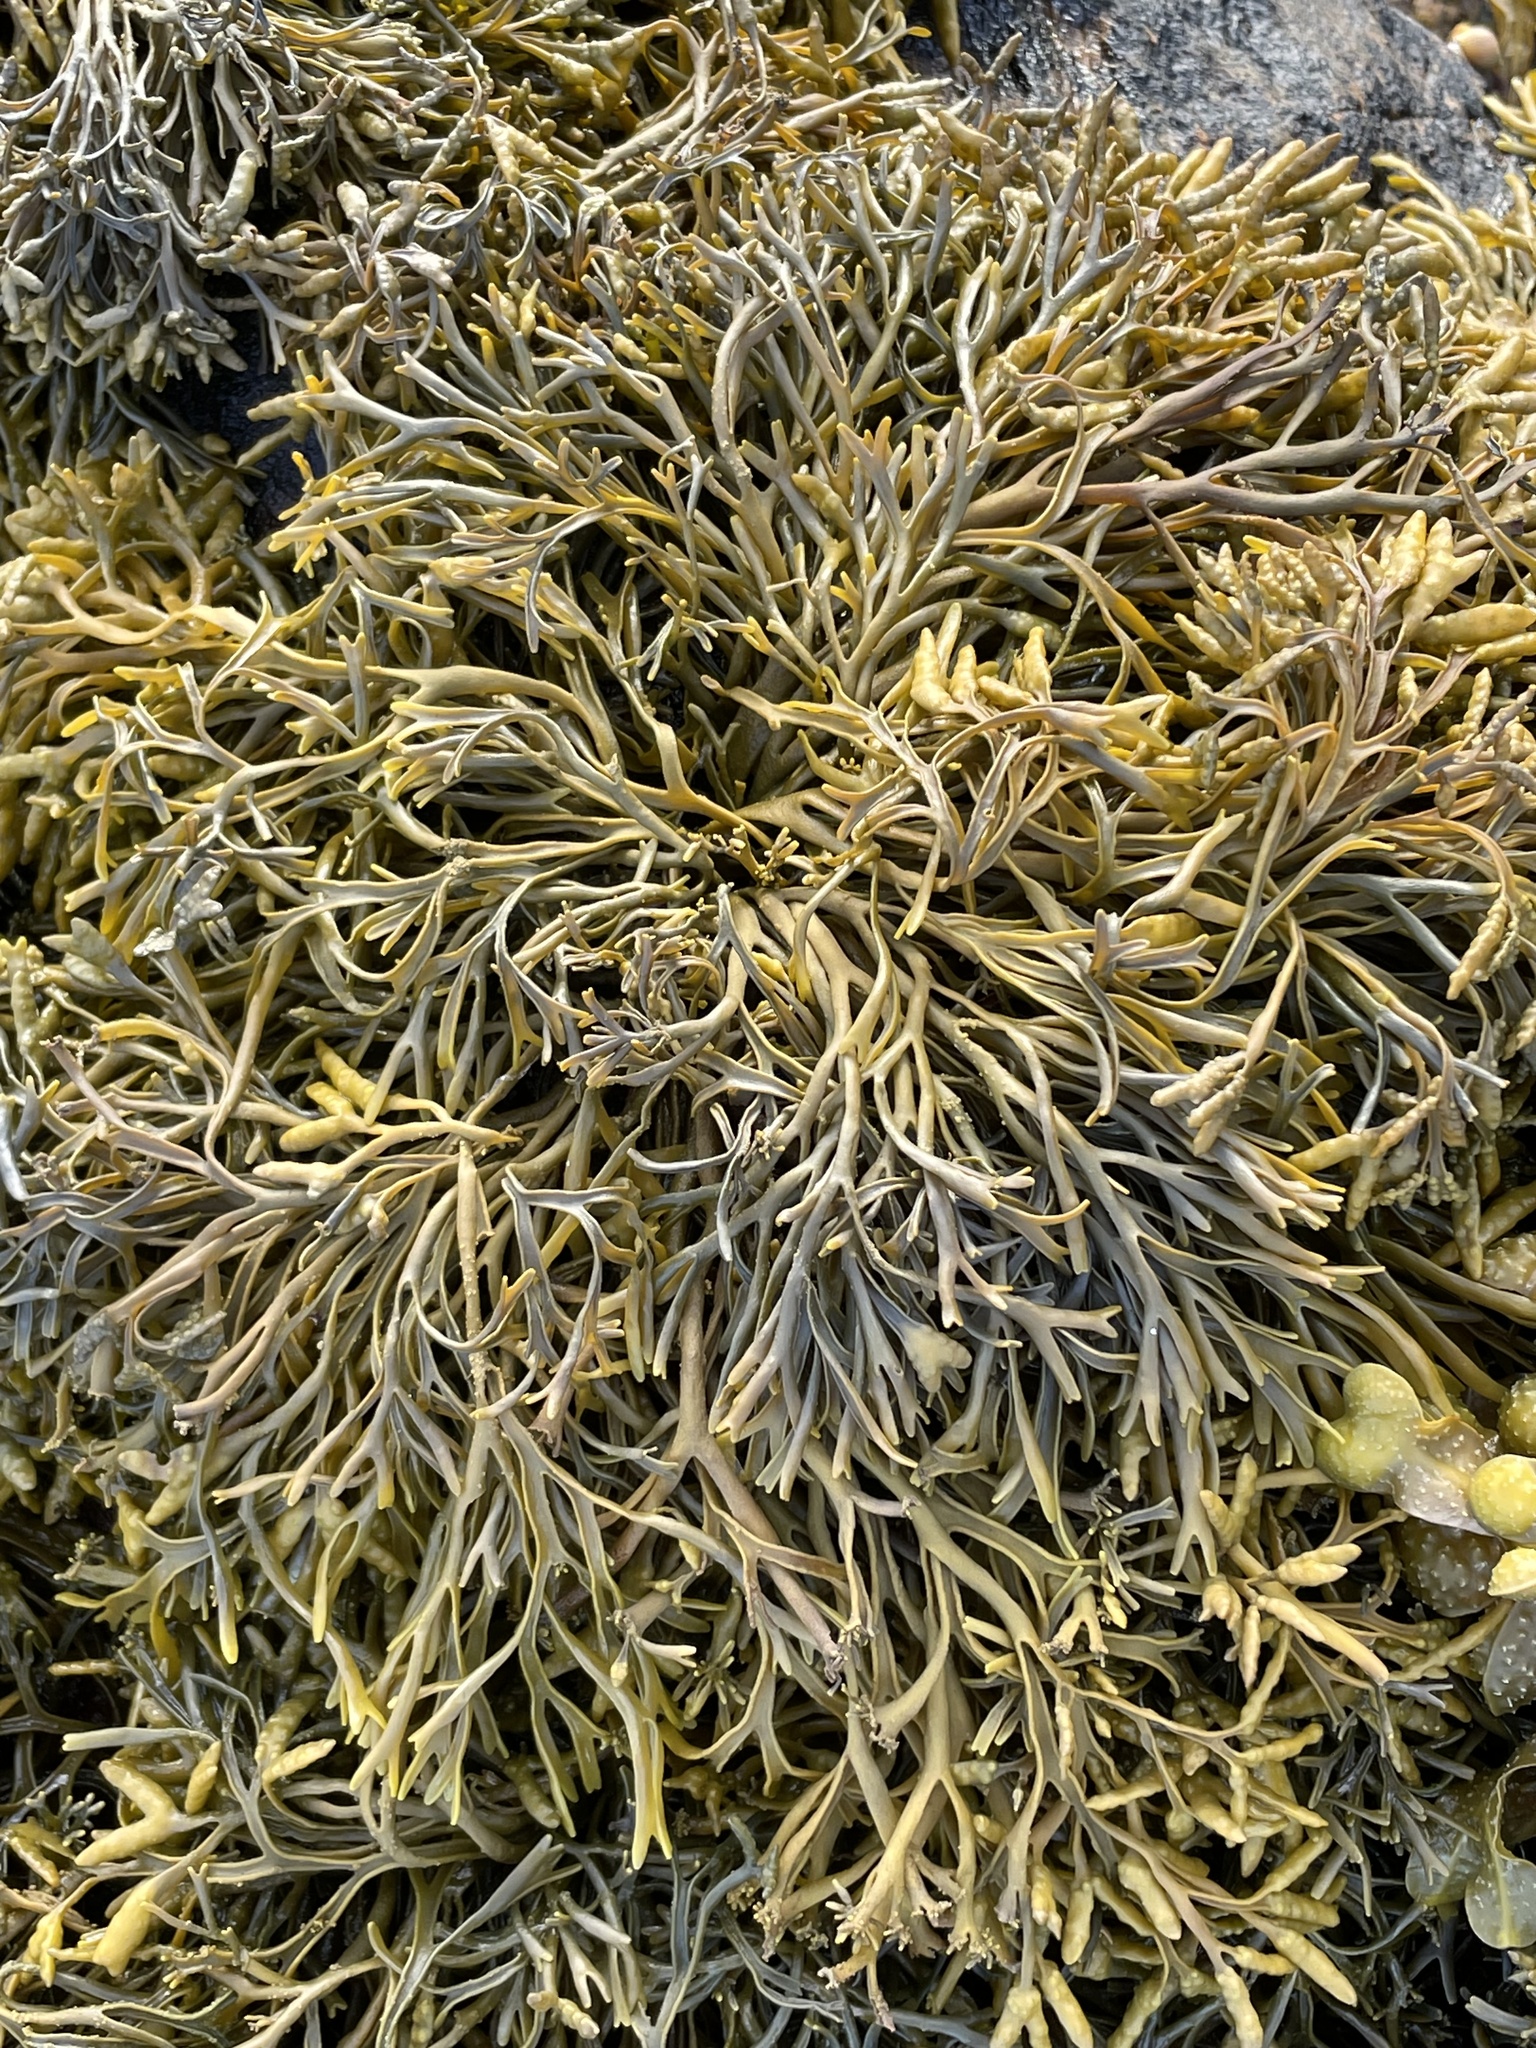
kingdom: Chromista
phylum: Ochrophyta
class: Phaeophyceae
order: Fucales
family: Fucaceae
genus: Pelvetia
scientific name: Pelvetia canaliculata
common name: Channelled wrack
